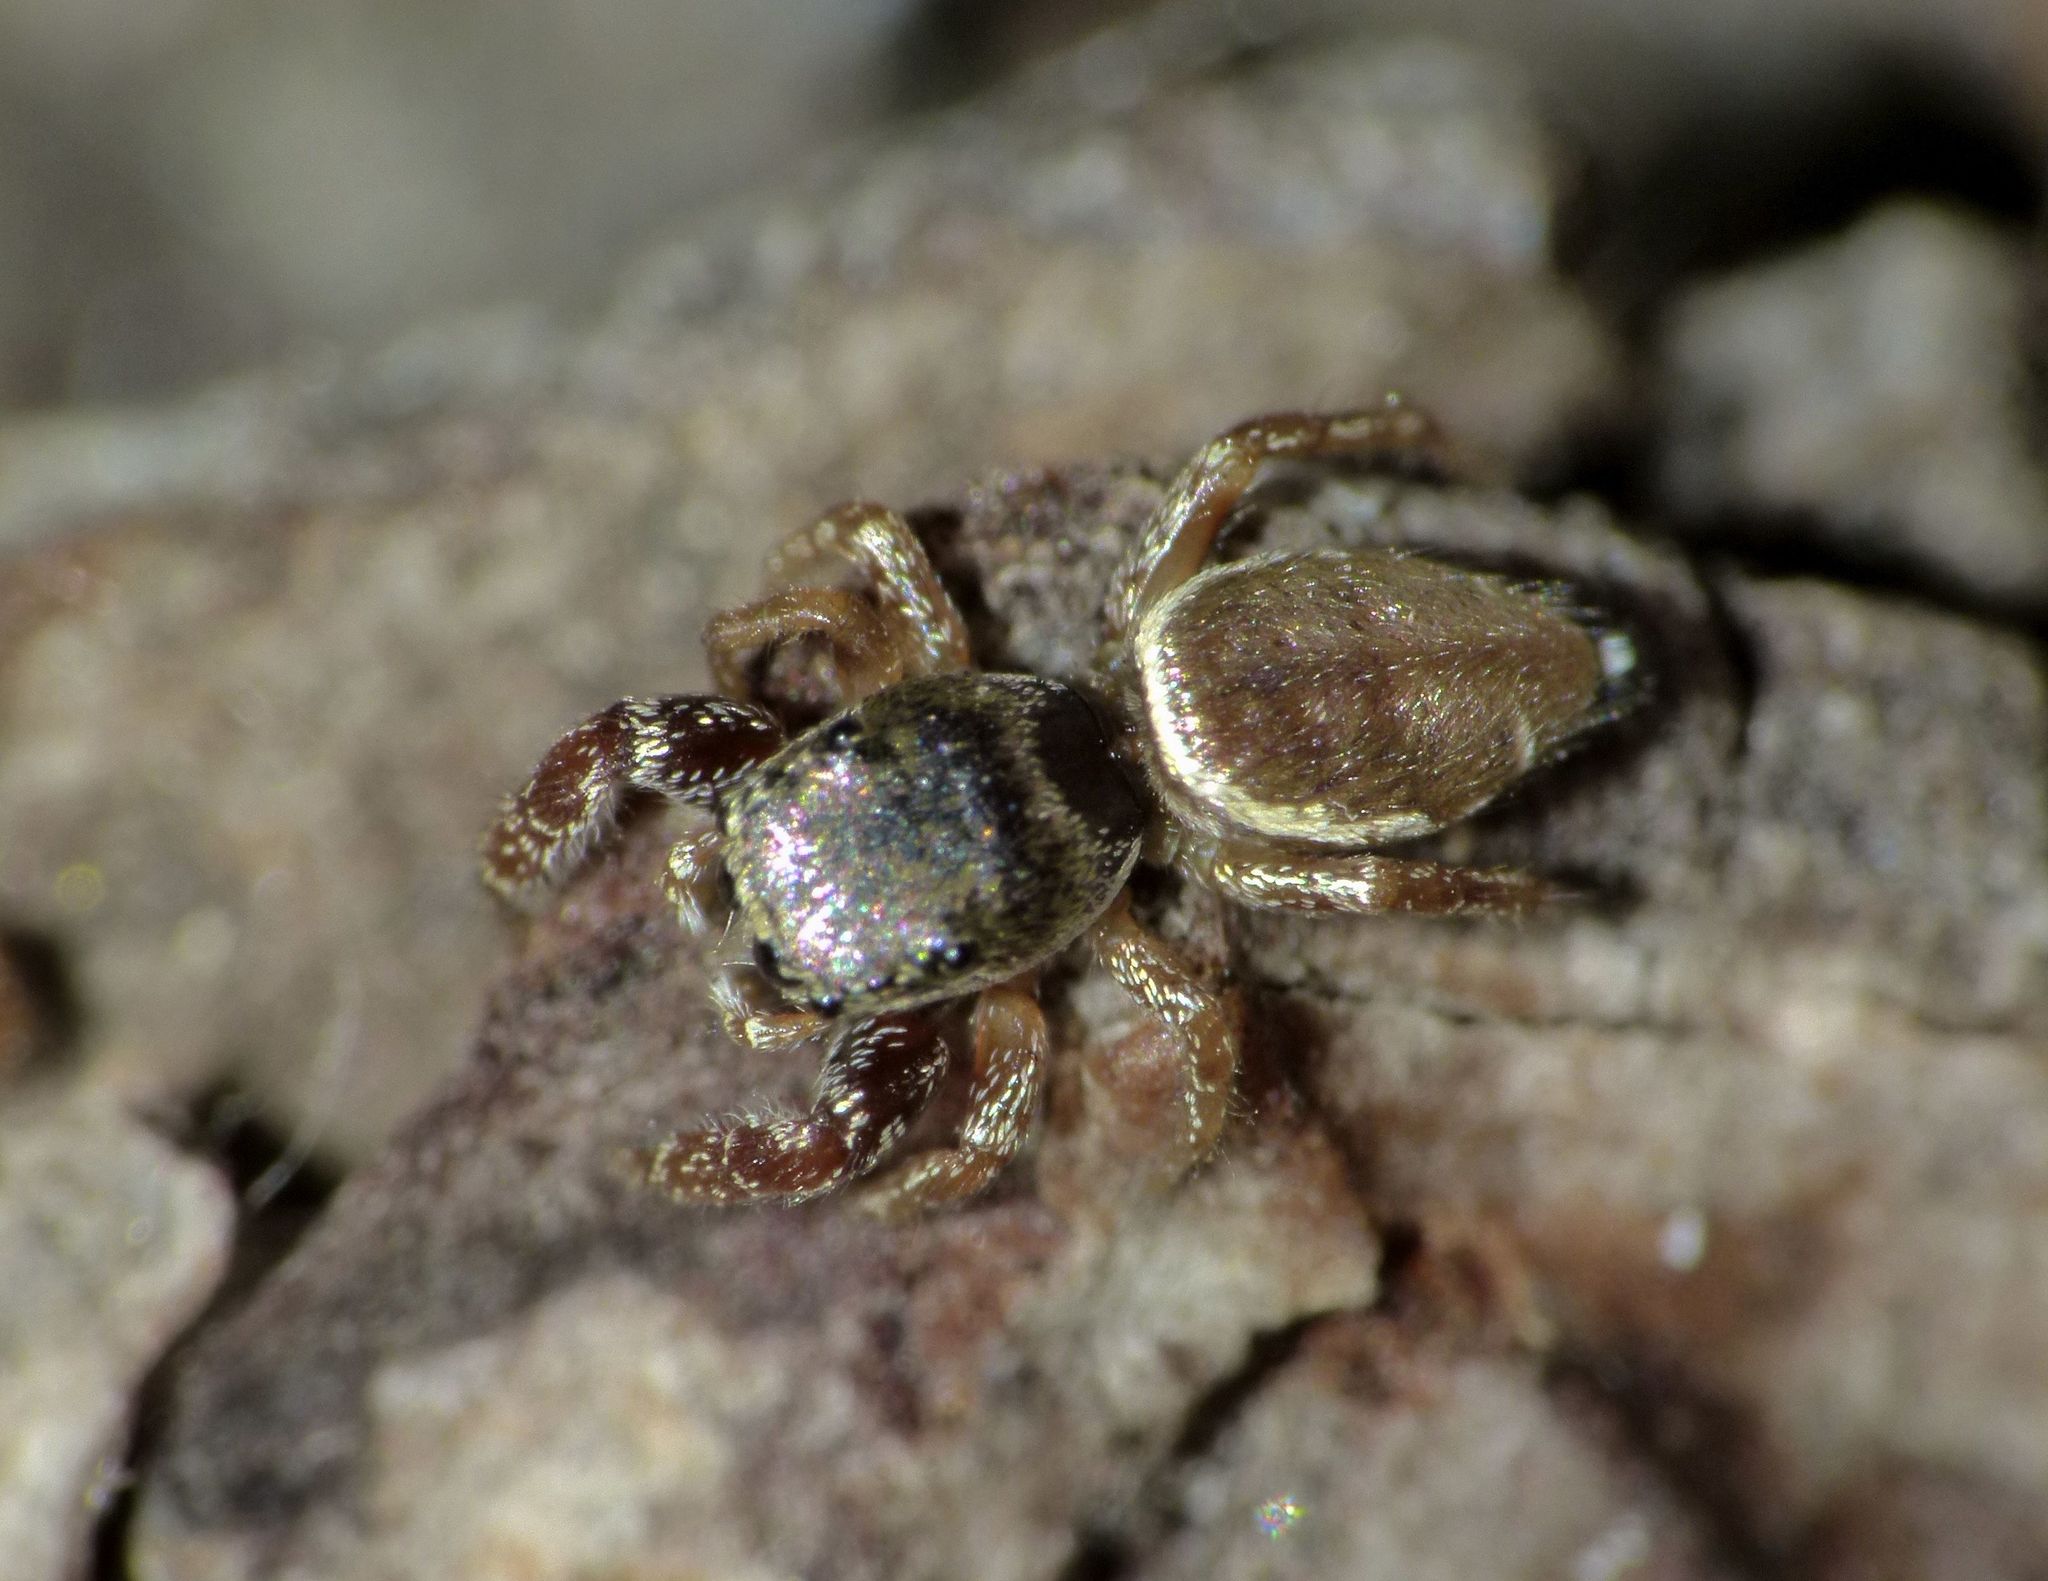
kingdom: Animalia
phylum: Arthropoda
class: Arachnida
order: Araneae
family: Salticidae
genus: Sassacus
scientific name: Sassacus vitis
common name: Jumping spiders
